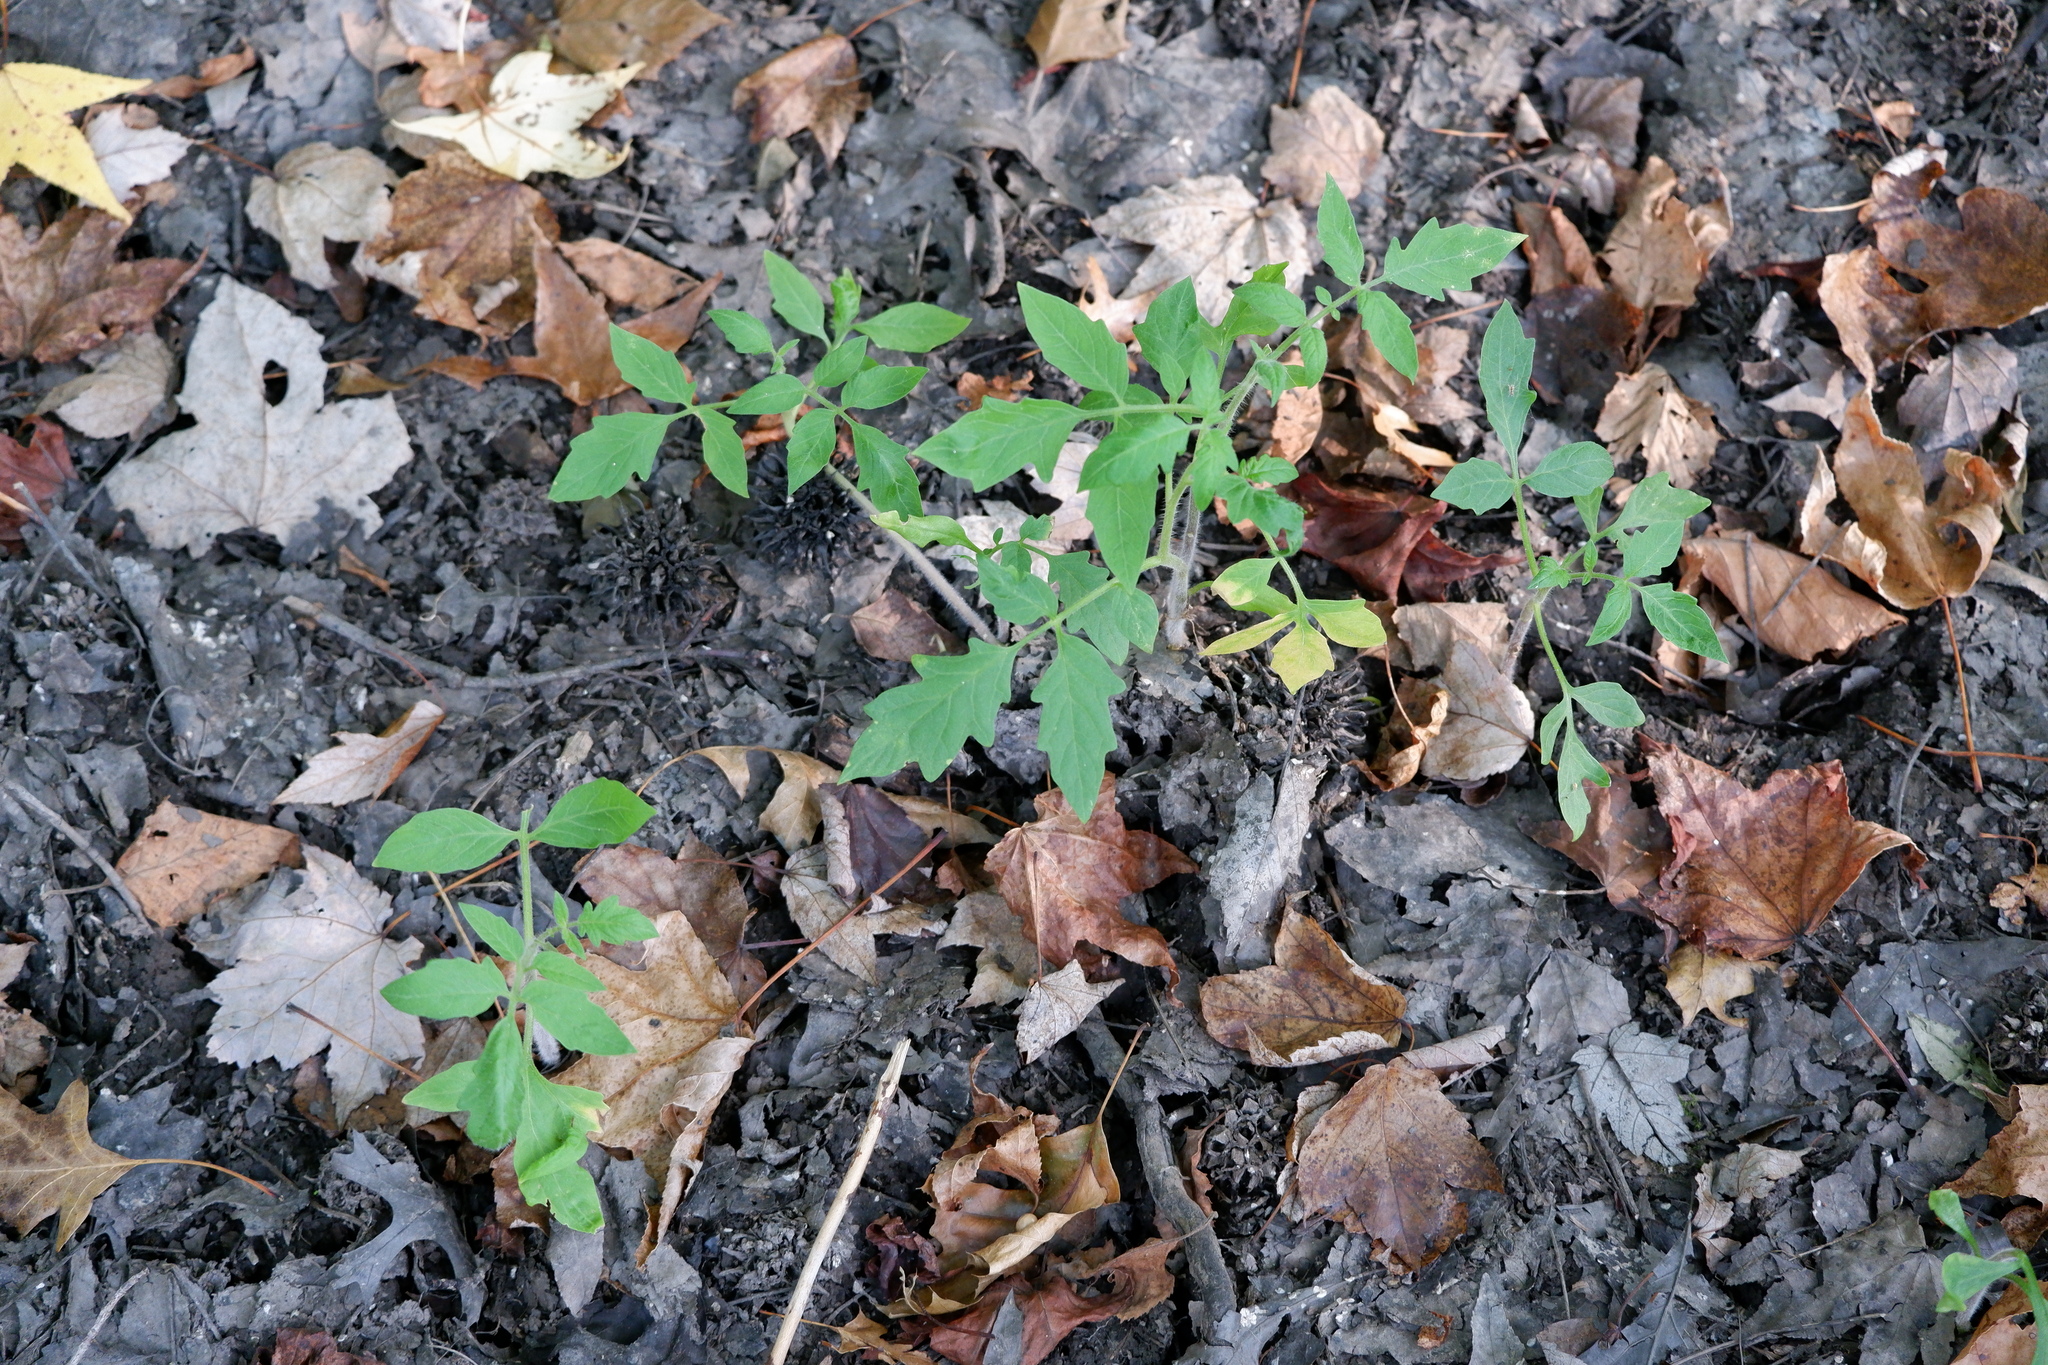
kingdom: Plantae
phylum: Tracheophyta
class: Magnoliopsida
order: Solanales
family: Solanaceae
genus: Solanum
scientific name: Solanum lycopersicum
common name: Garden tomato
